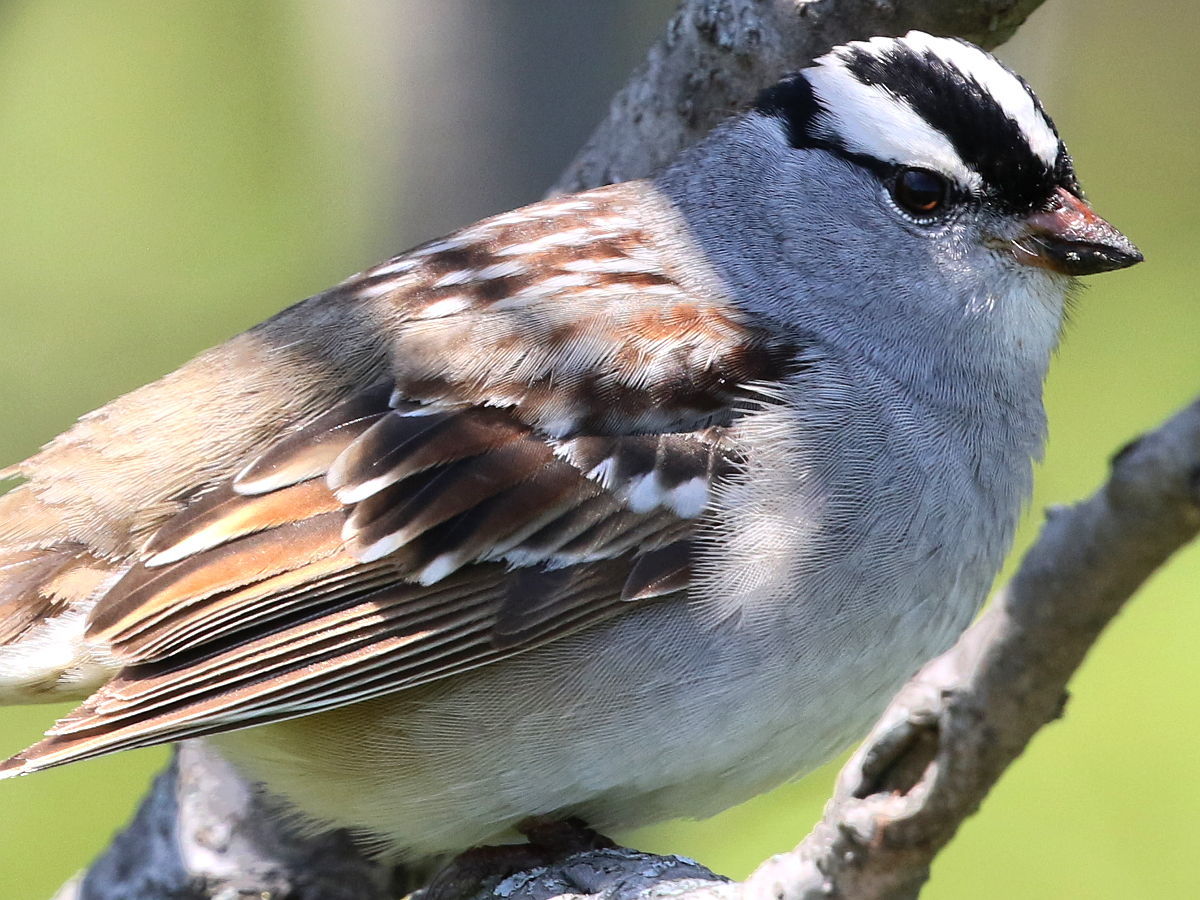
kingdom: Animalia
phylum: Chordata
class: Aves
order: Passeriformes
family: Passerellidae
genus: Zonotrichia
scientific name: Zonotrichia leucophrys
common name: White-crowned sparrow
